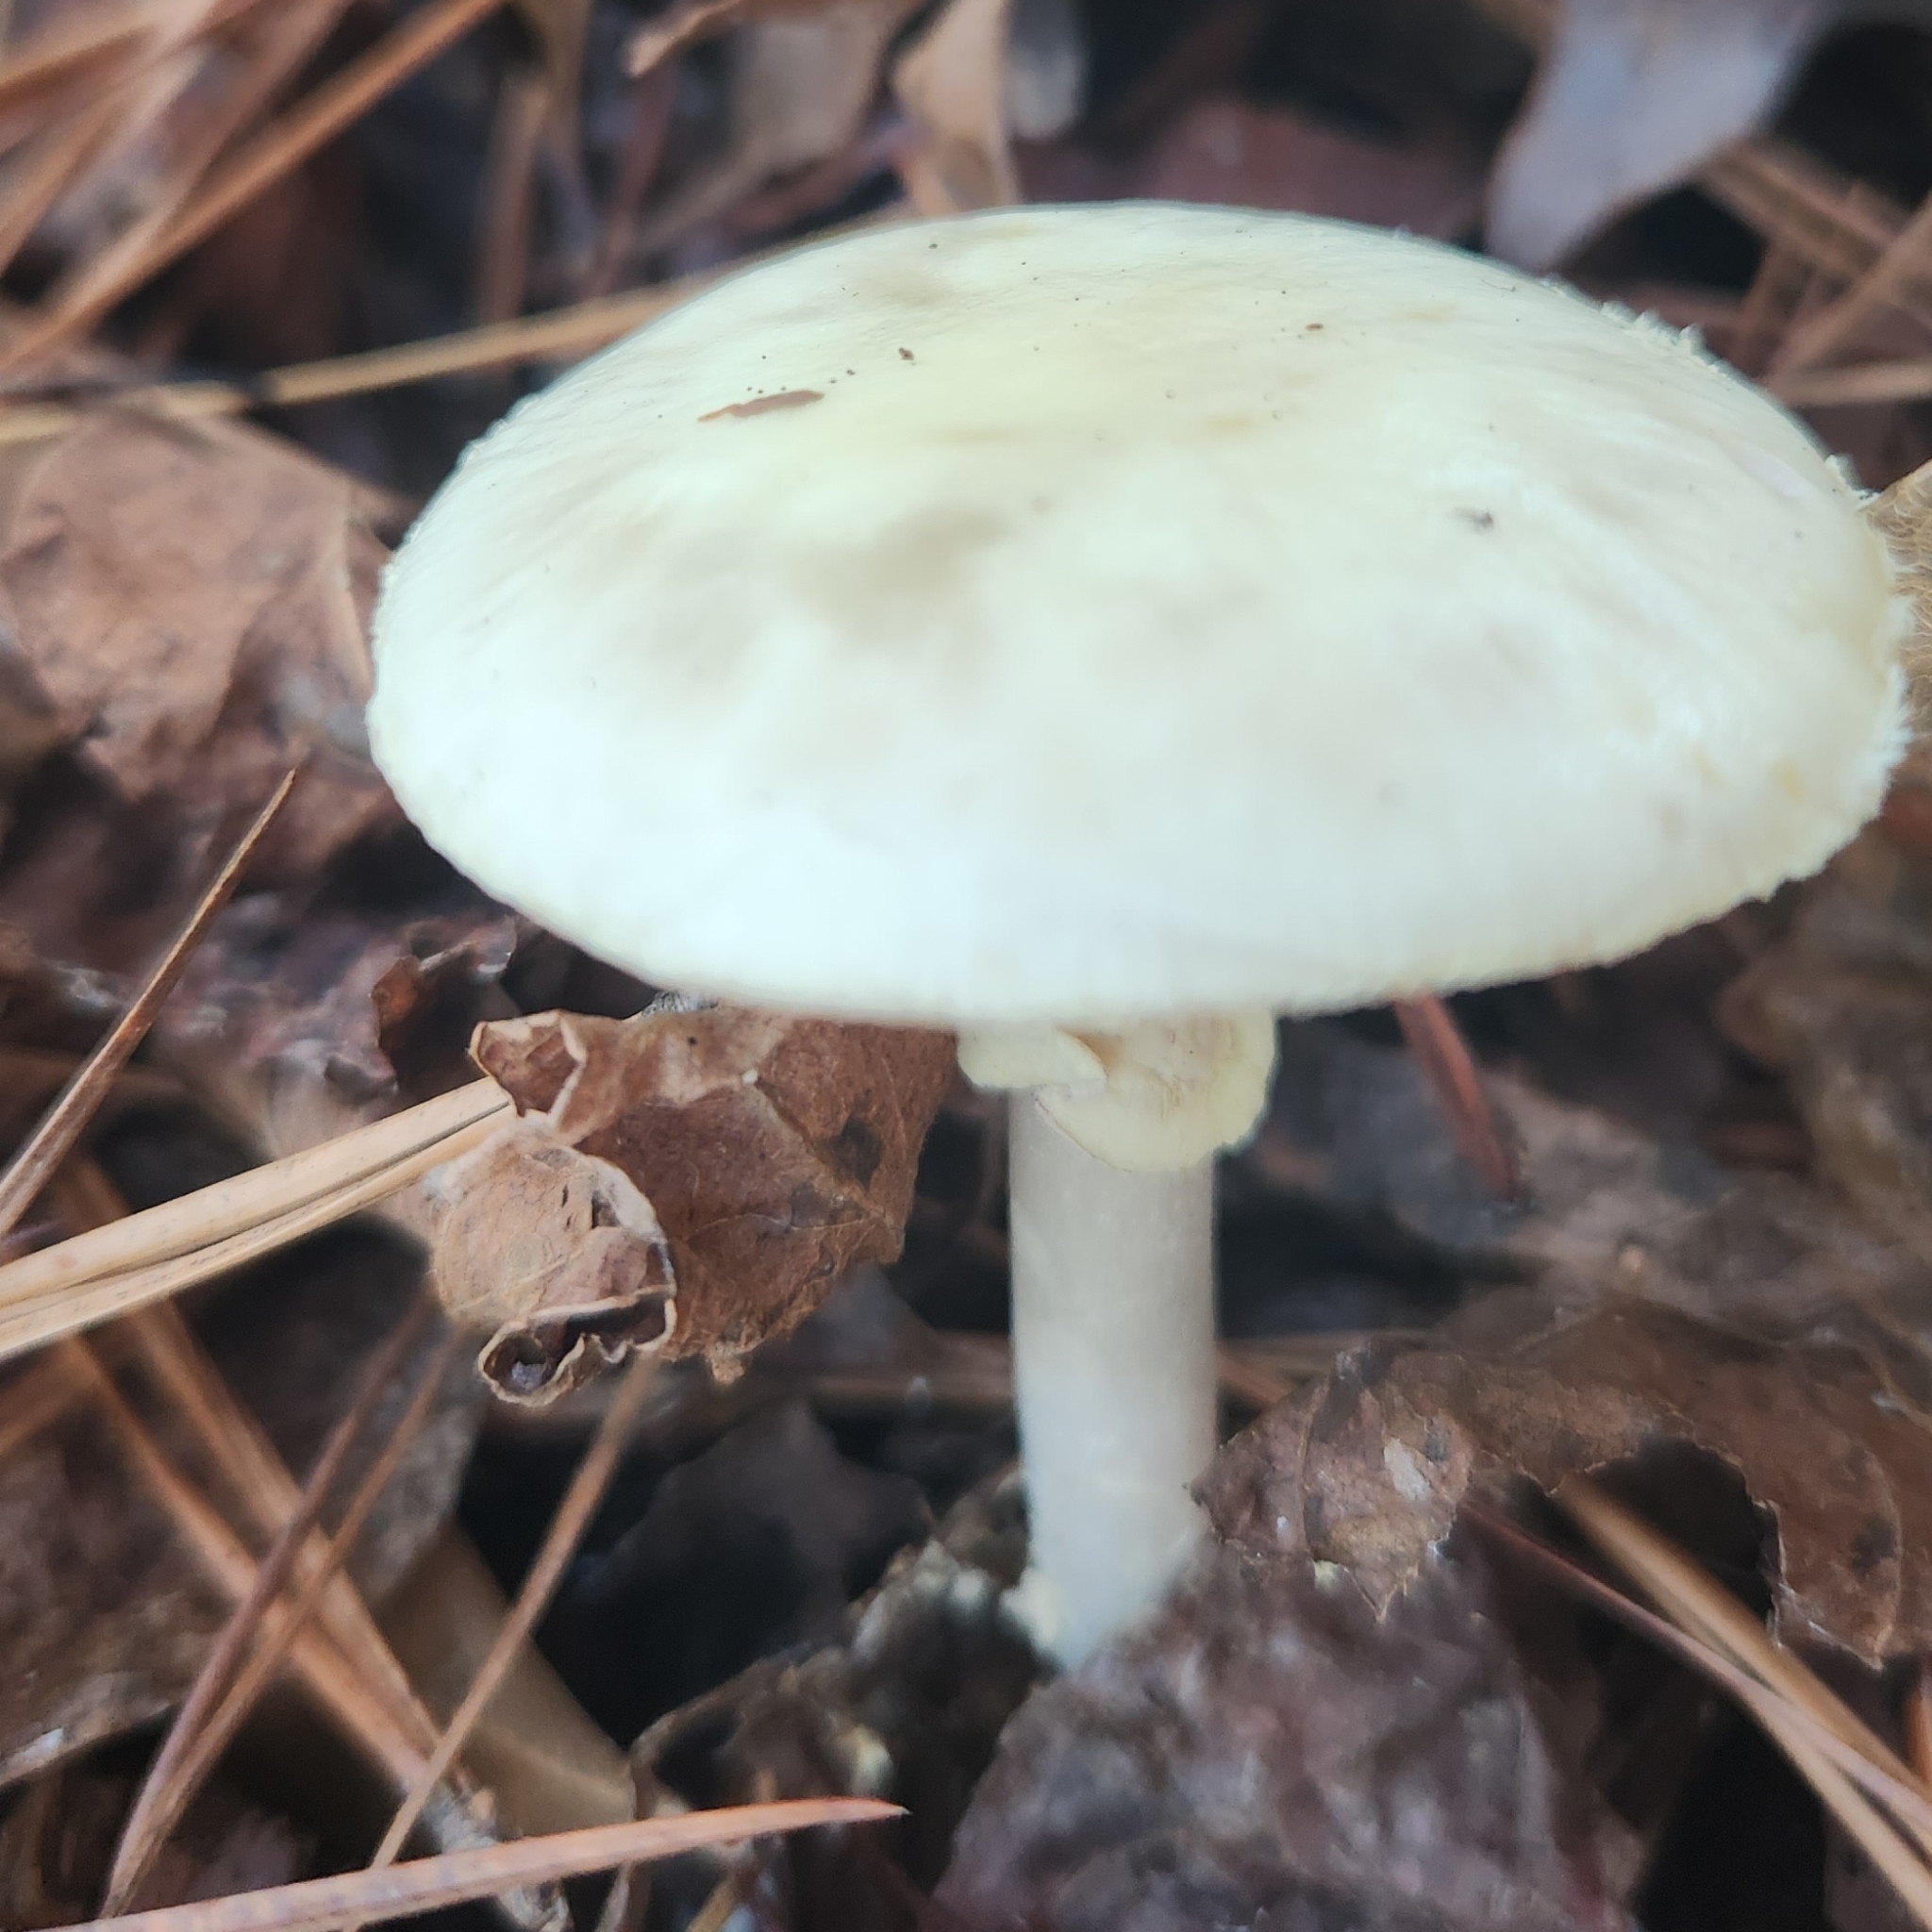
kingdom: Fungi
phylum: Basidiomycota
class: Agaricomycetes
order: Agaricales
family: Amanitaceae
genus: Amanita
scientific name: Amanita lavendula
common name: Coker's lavender staining amanita
